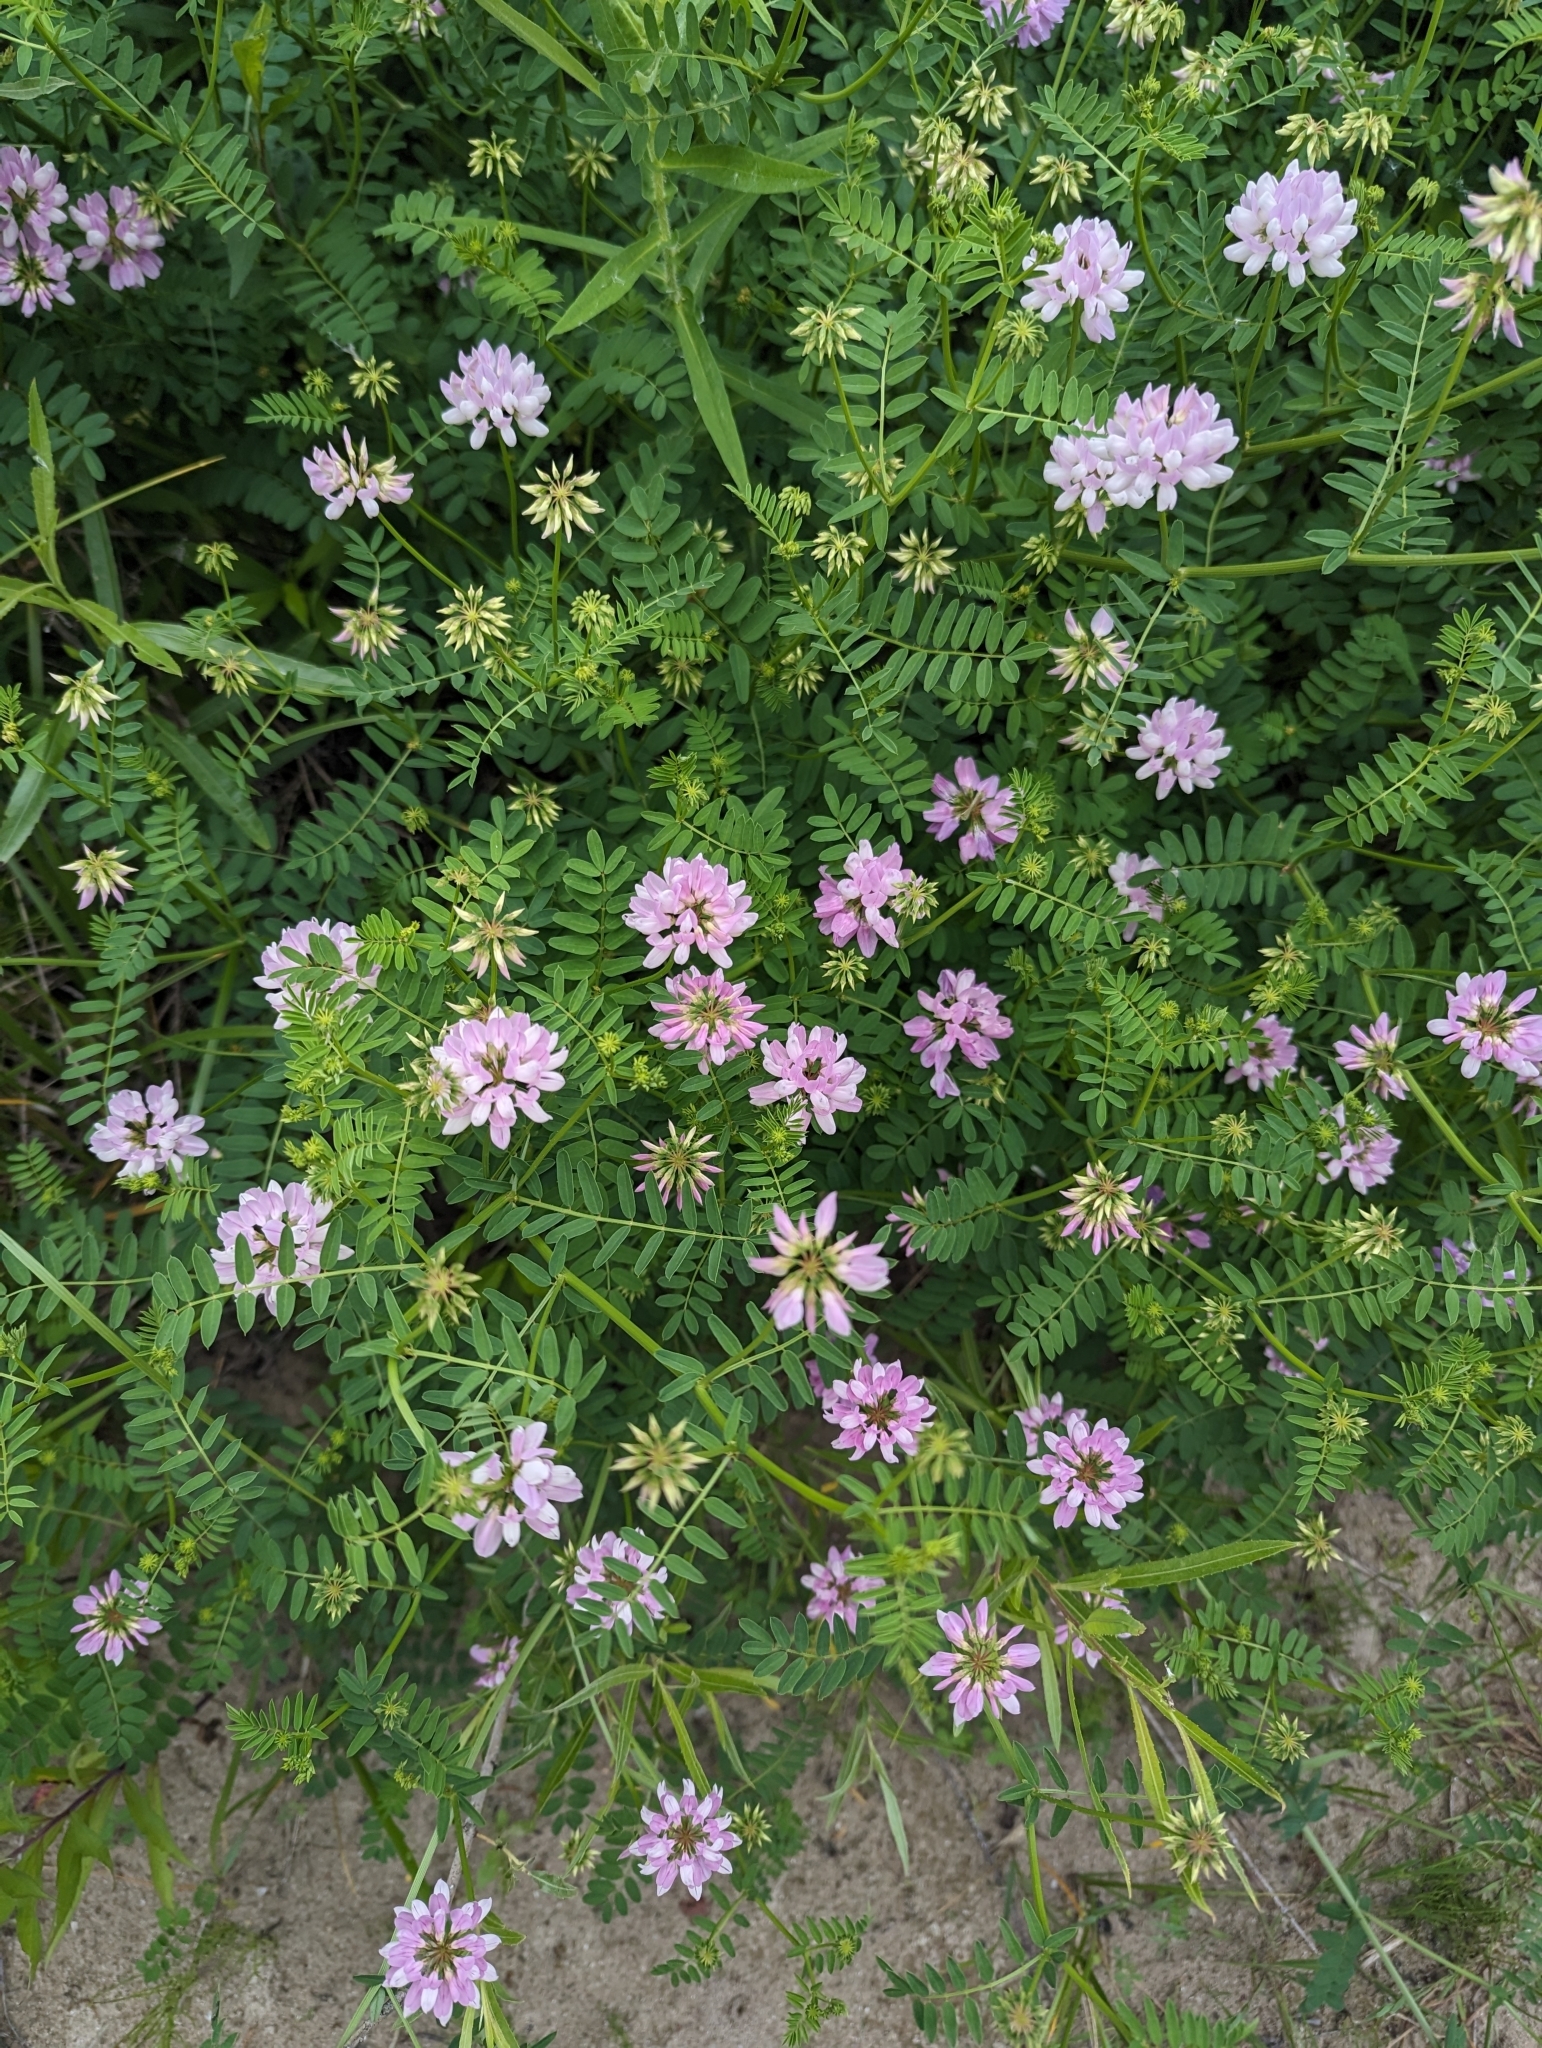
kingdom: Plantae
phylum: Tracheophyta
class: Magnoliopsida
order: Fabales
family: Fabaceae
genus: Coronilla
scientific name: Coronilla varia
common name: Crownvetch
